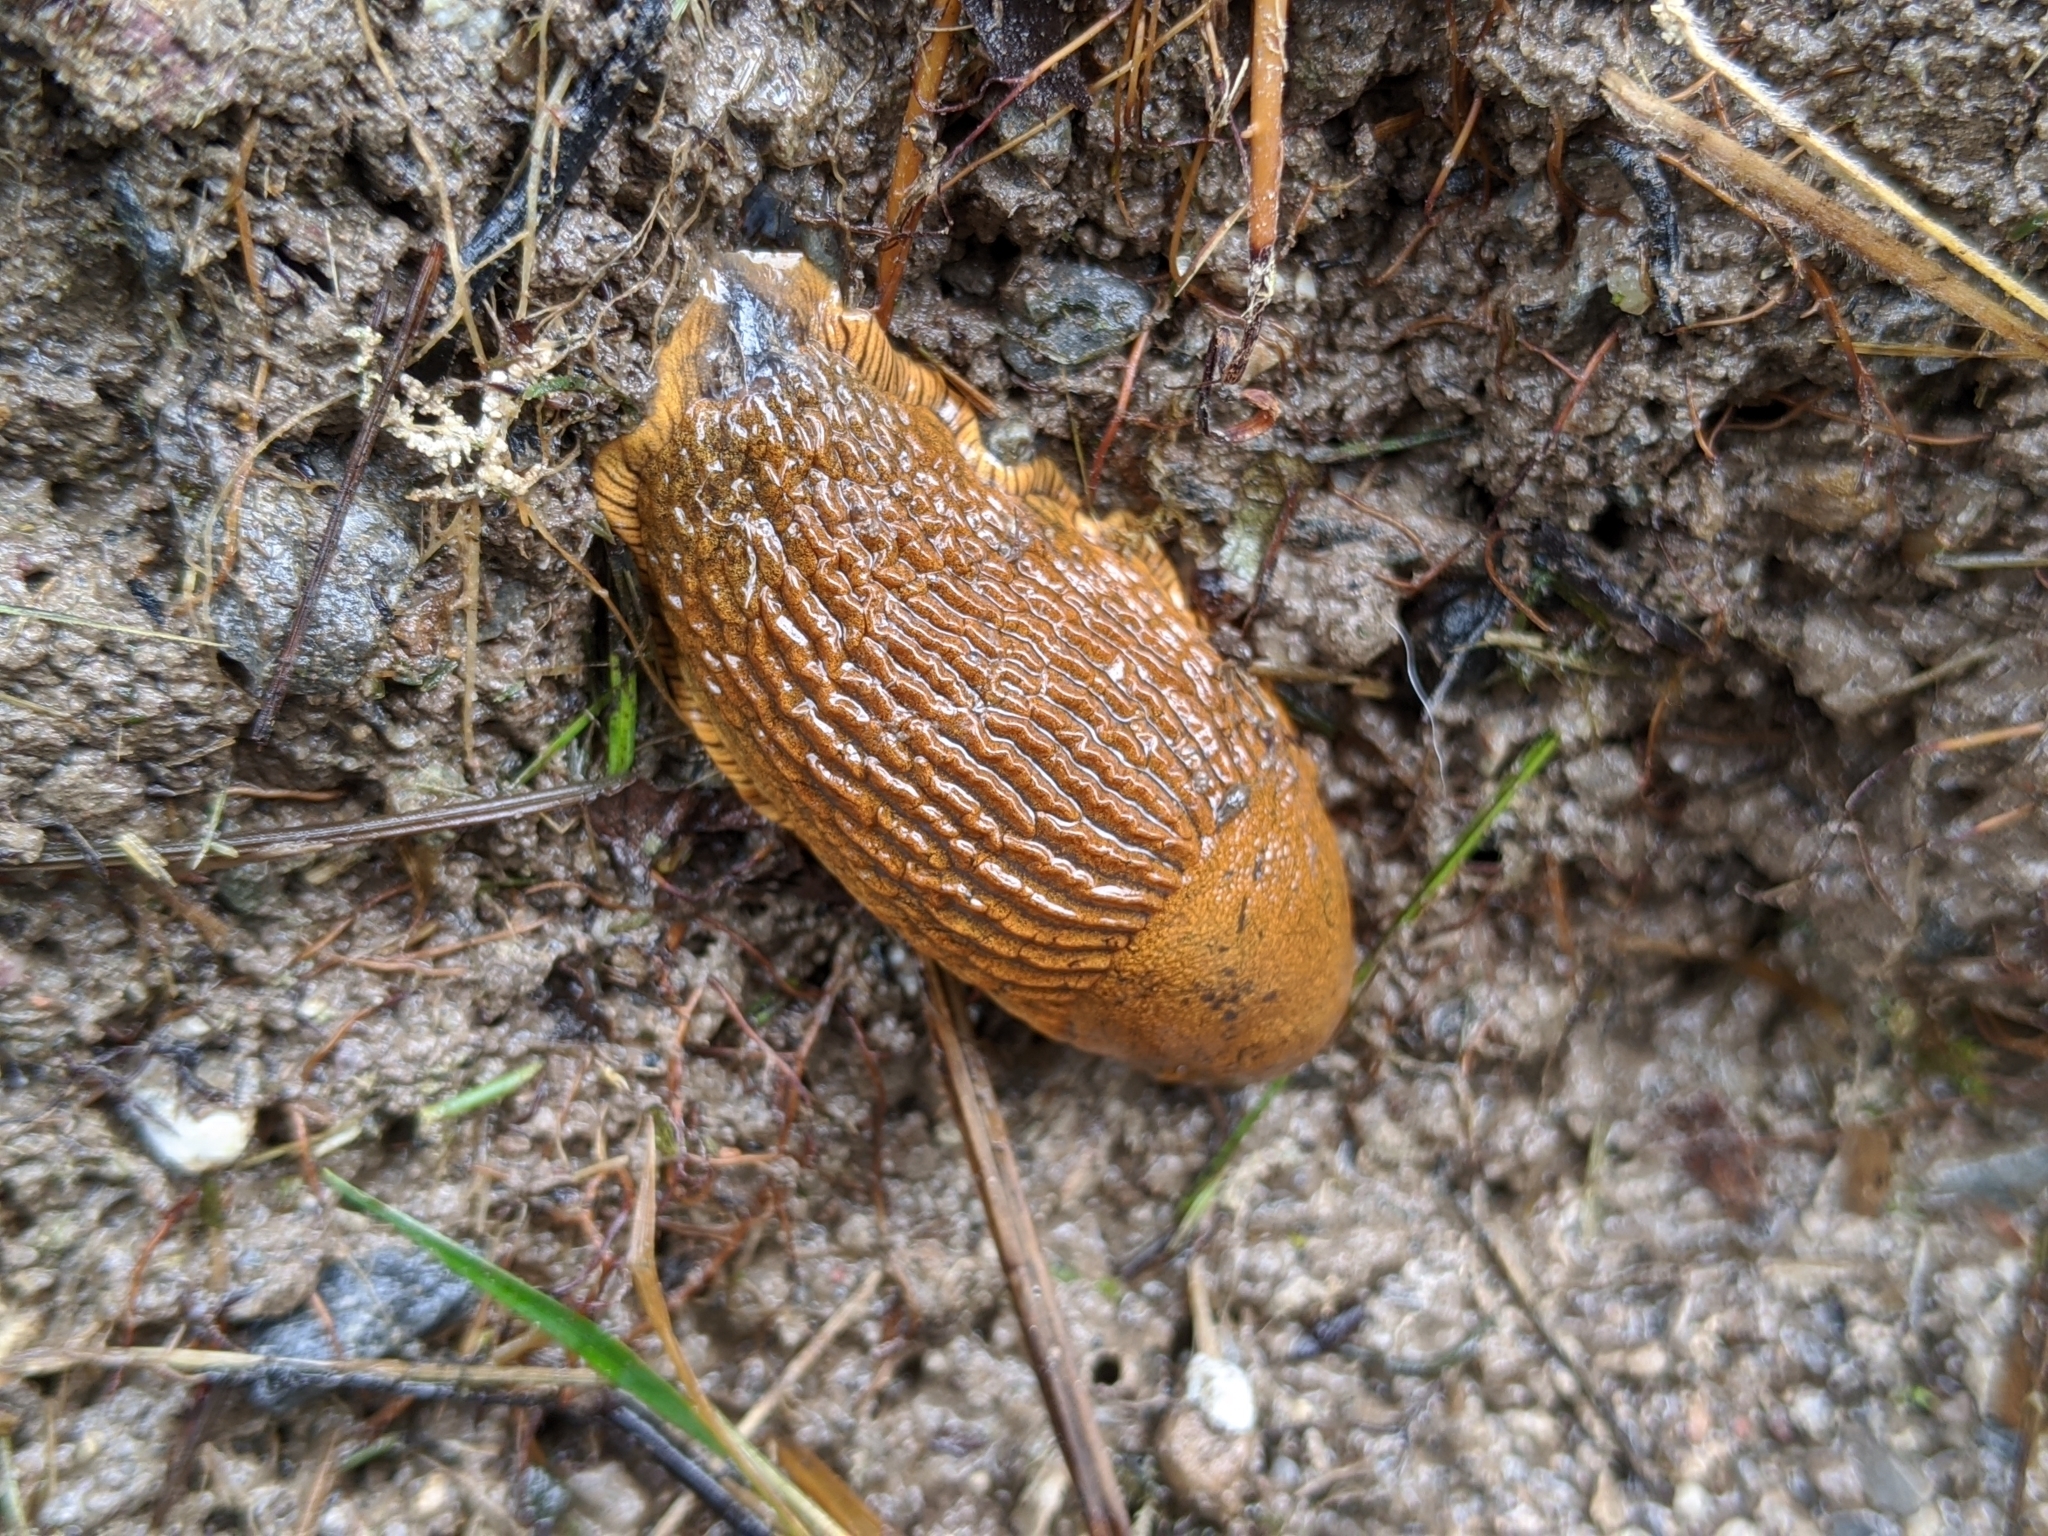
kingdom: Animalia
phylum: Mollusca
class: Gastropoda
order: Stylommatophora
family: Arionidae
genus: Arion
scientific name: Arion
